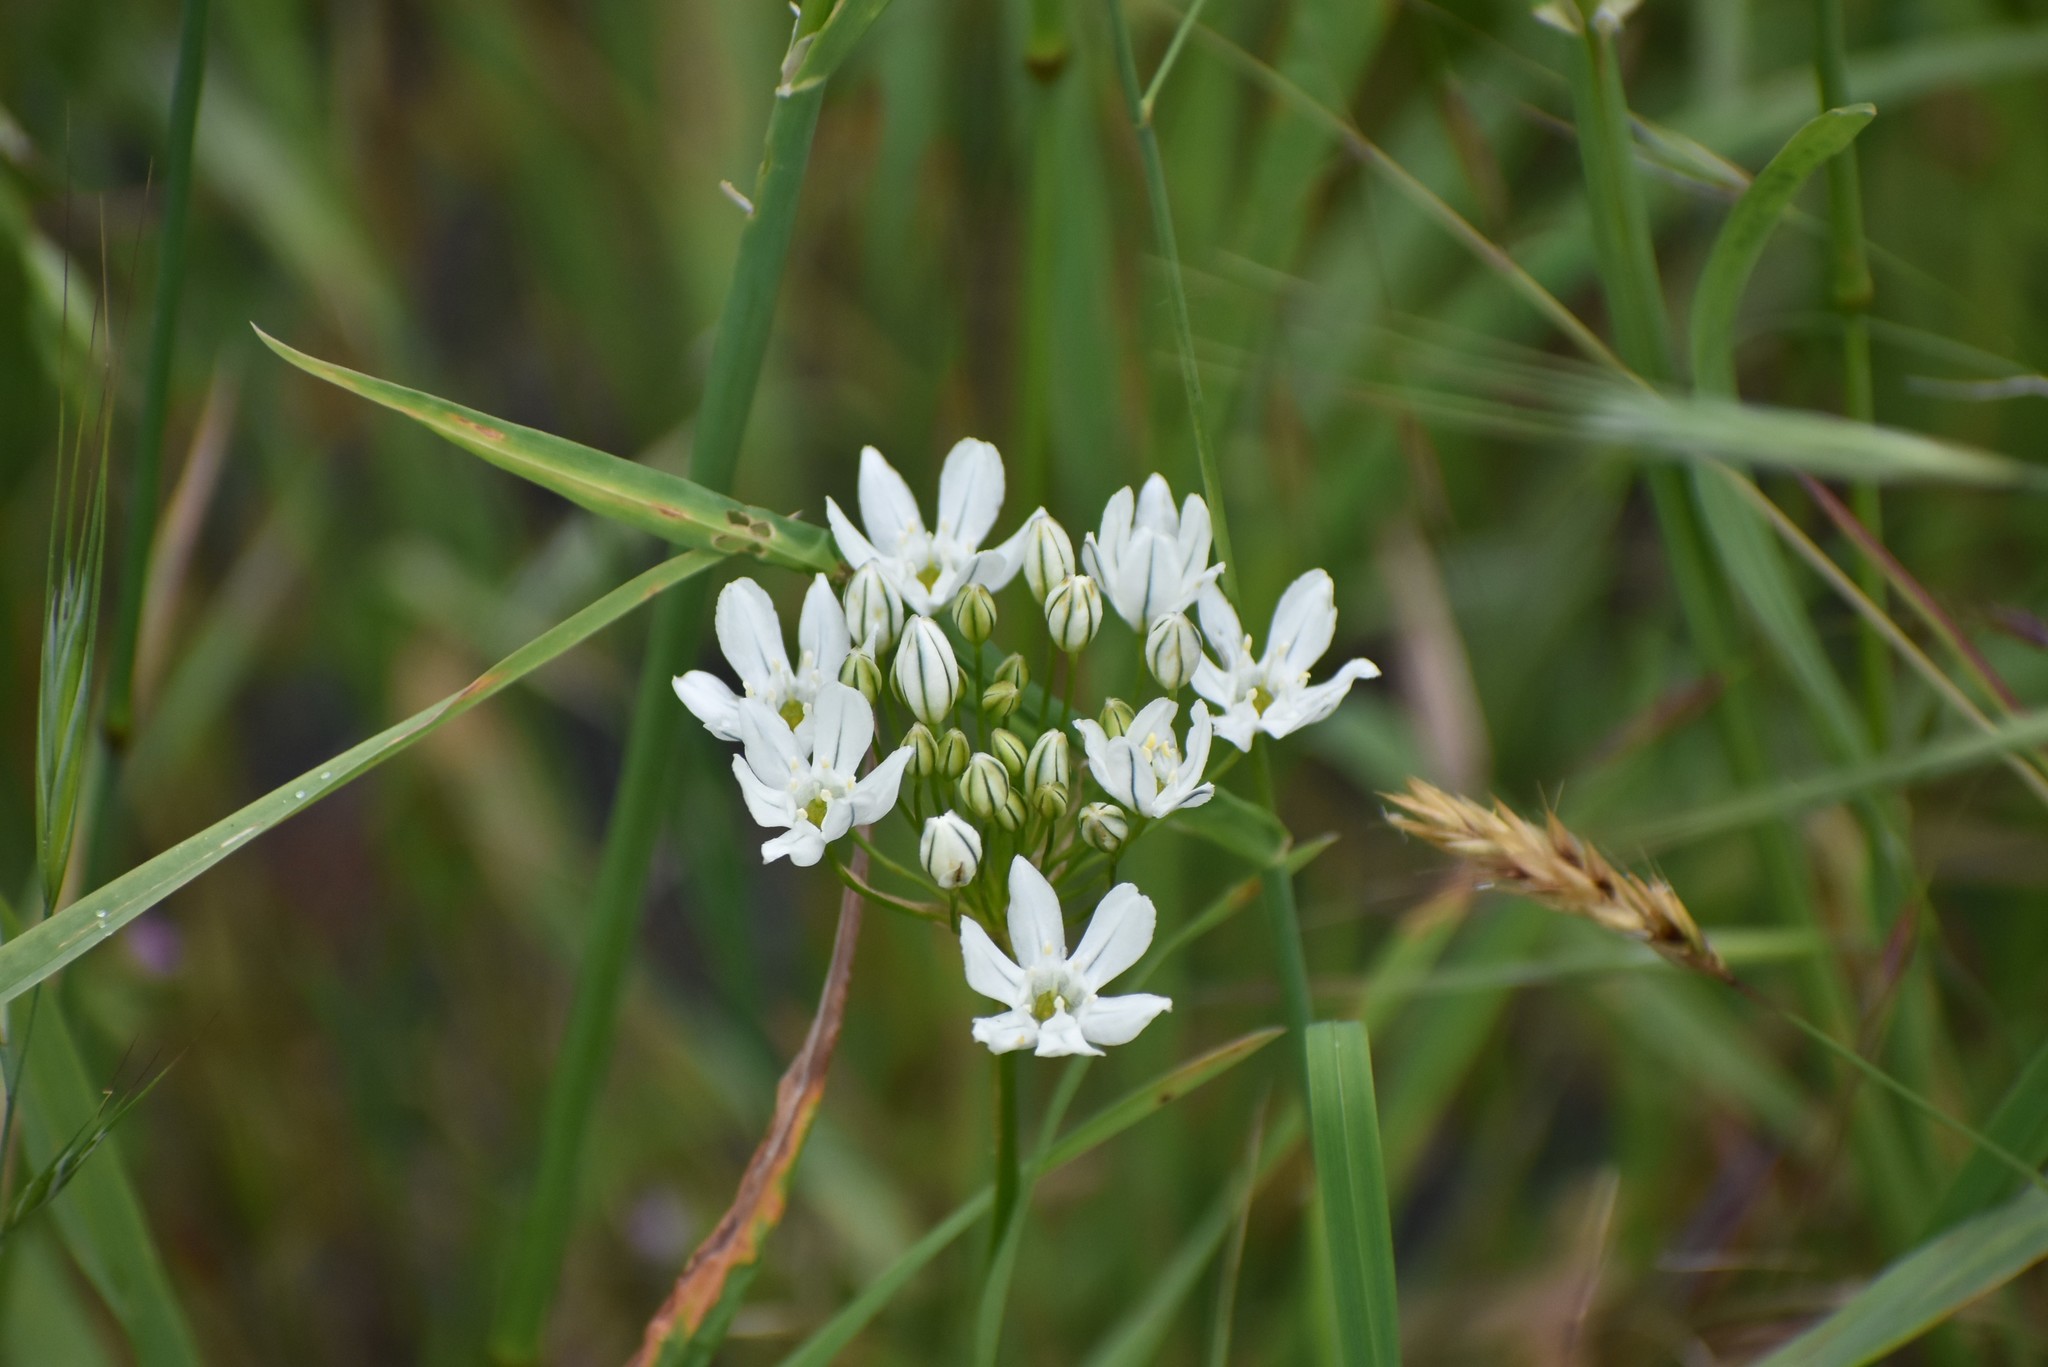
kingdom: Plantae
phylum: Tracheophyta
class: Liliopsida
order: Asparagales
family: Asparagaceae
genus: Triteleia
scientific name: Triteleia hyacinthina
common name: White brodiaea
